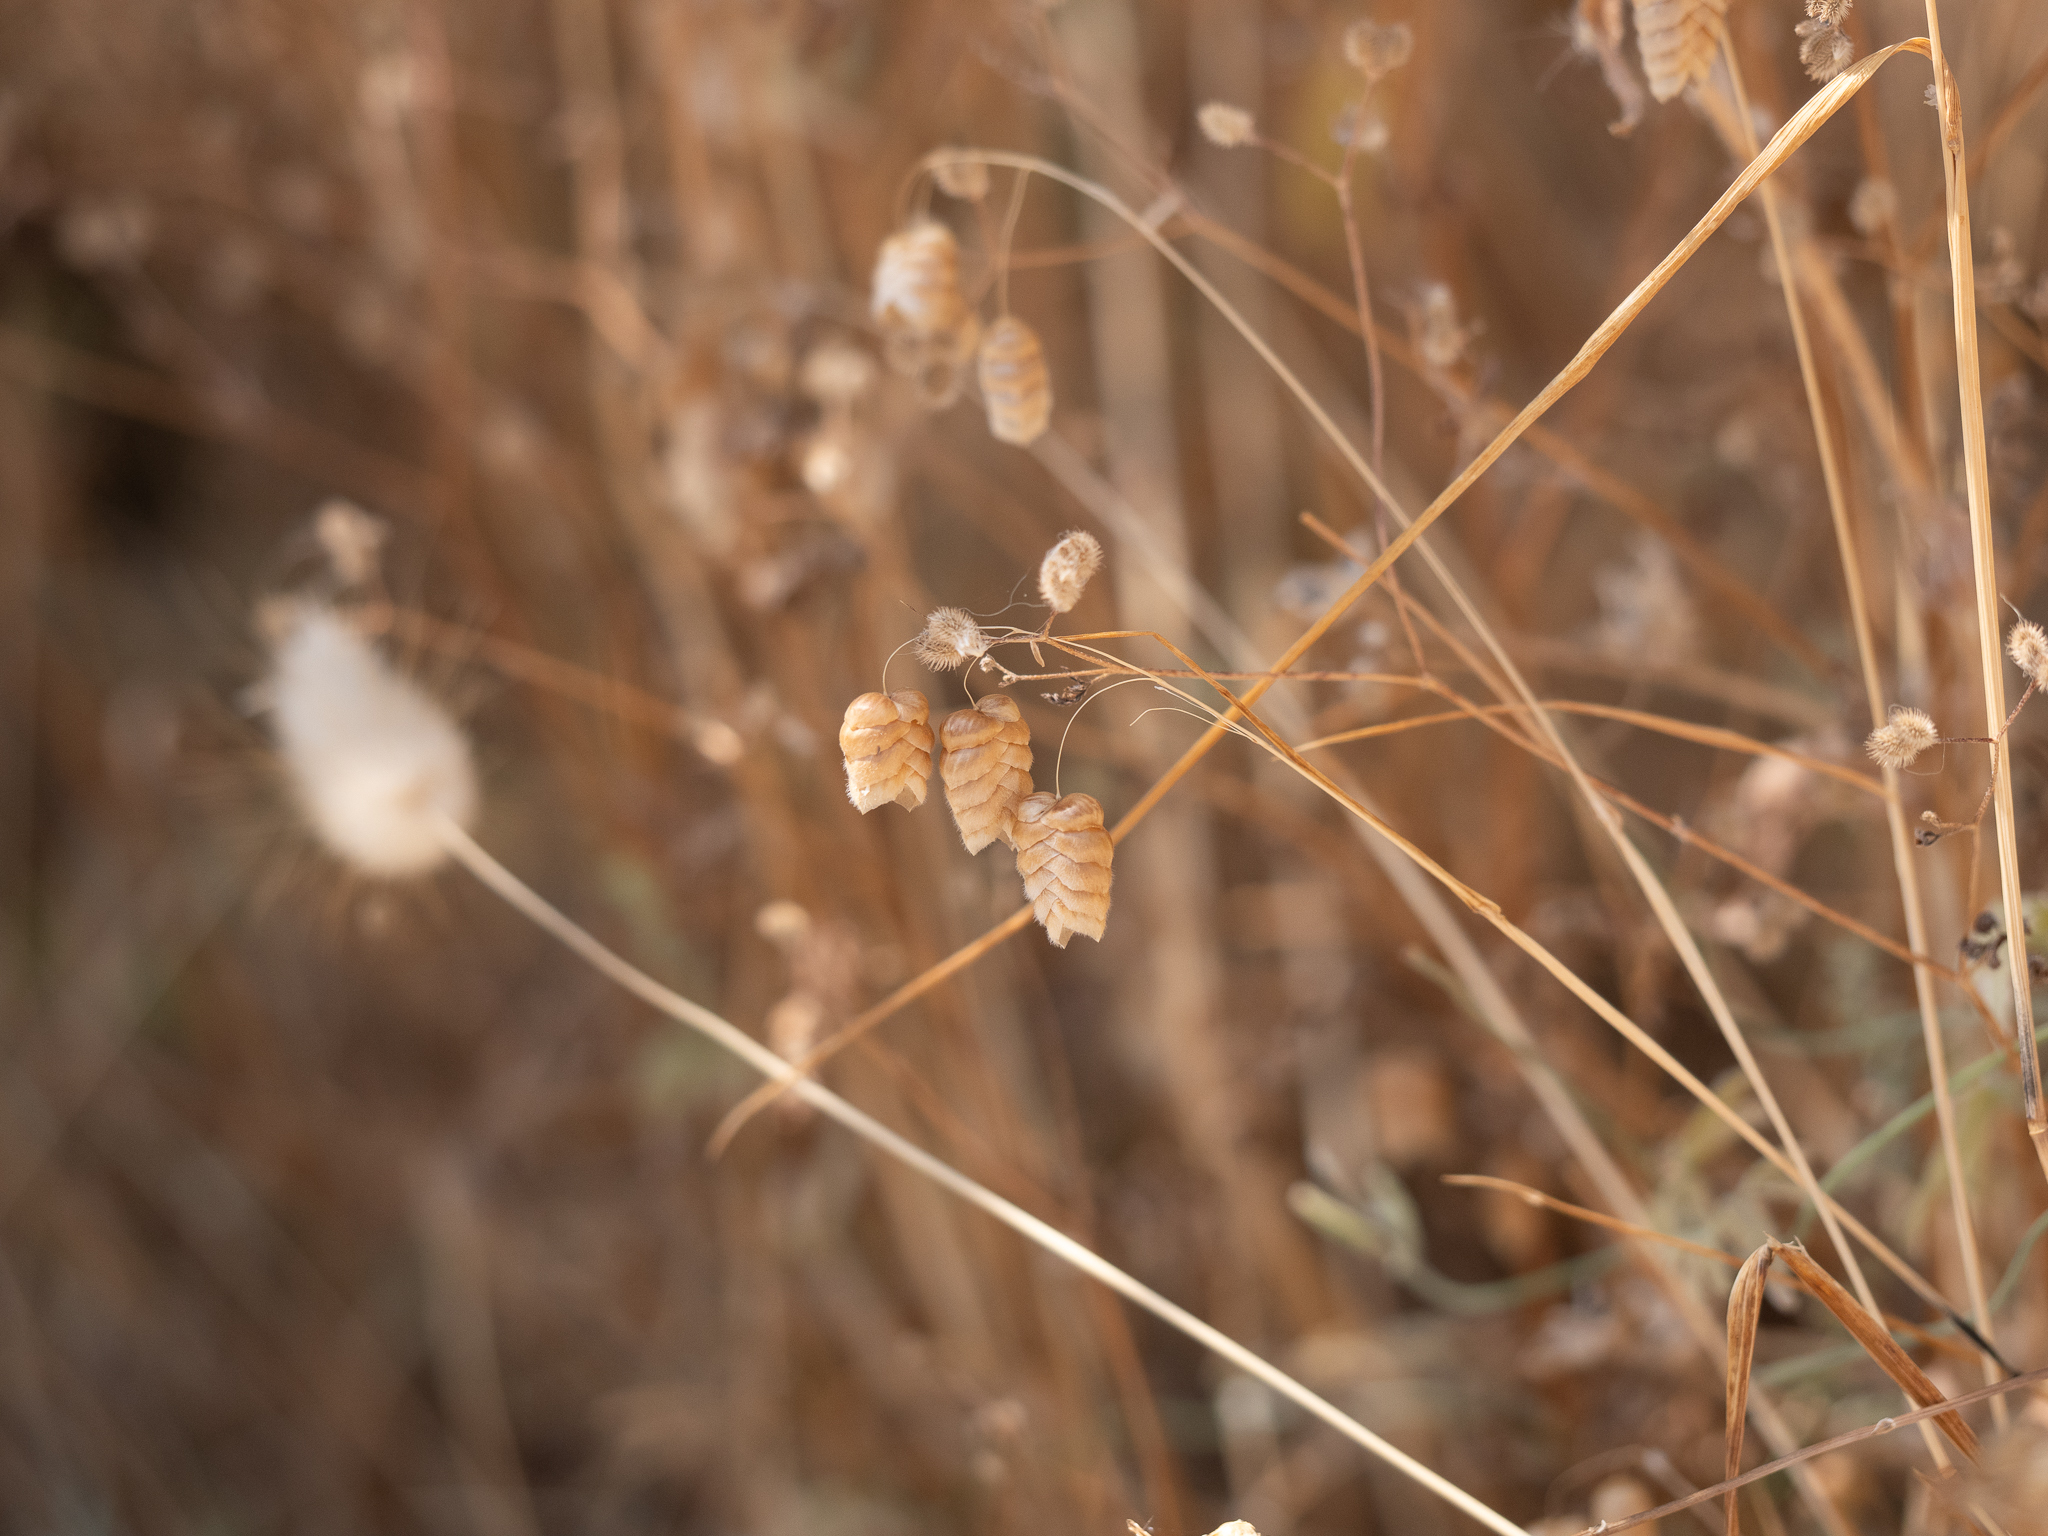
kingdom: Plantae
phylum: Tracheophyta
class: Liliopsida
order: Poales
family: Poaceae
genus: Briza
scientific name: Briza maxima
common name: Big quakinggrass
